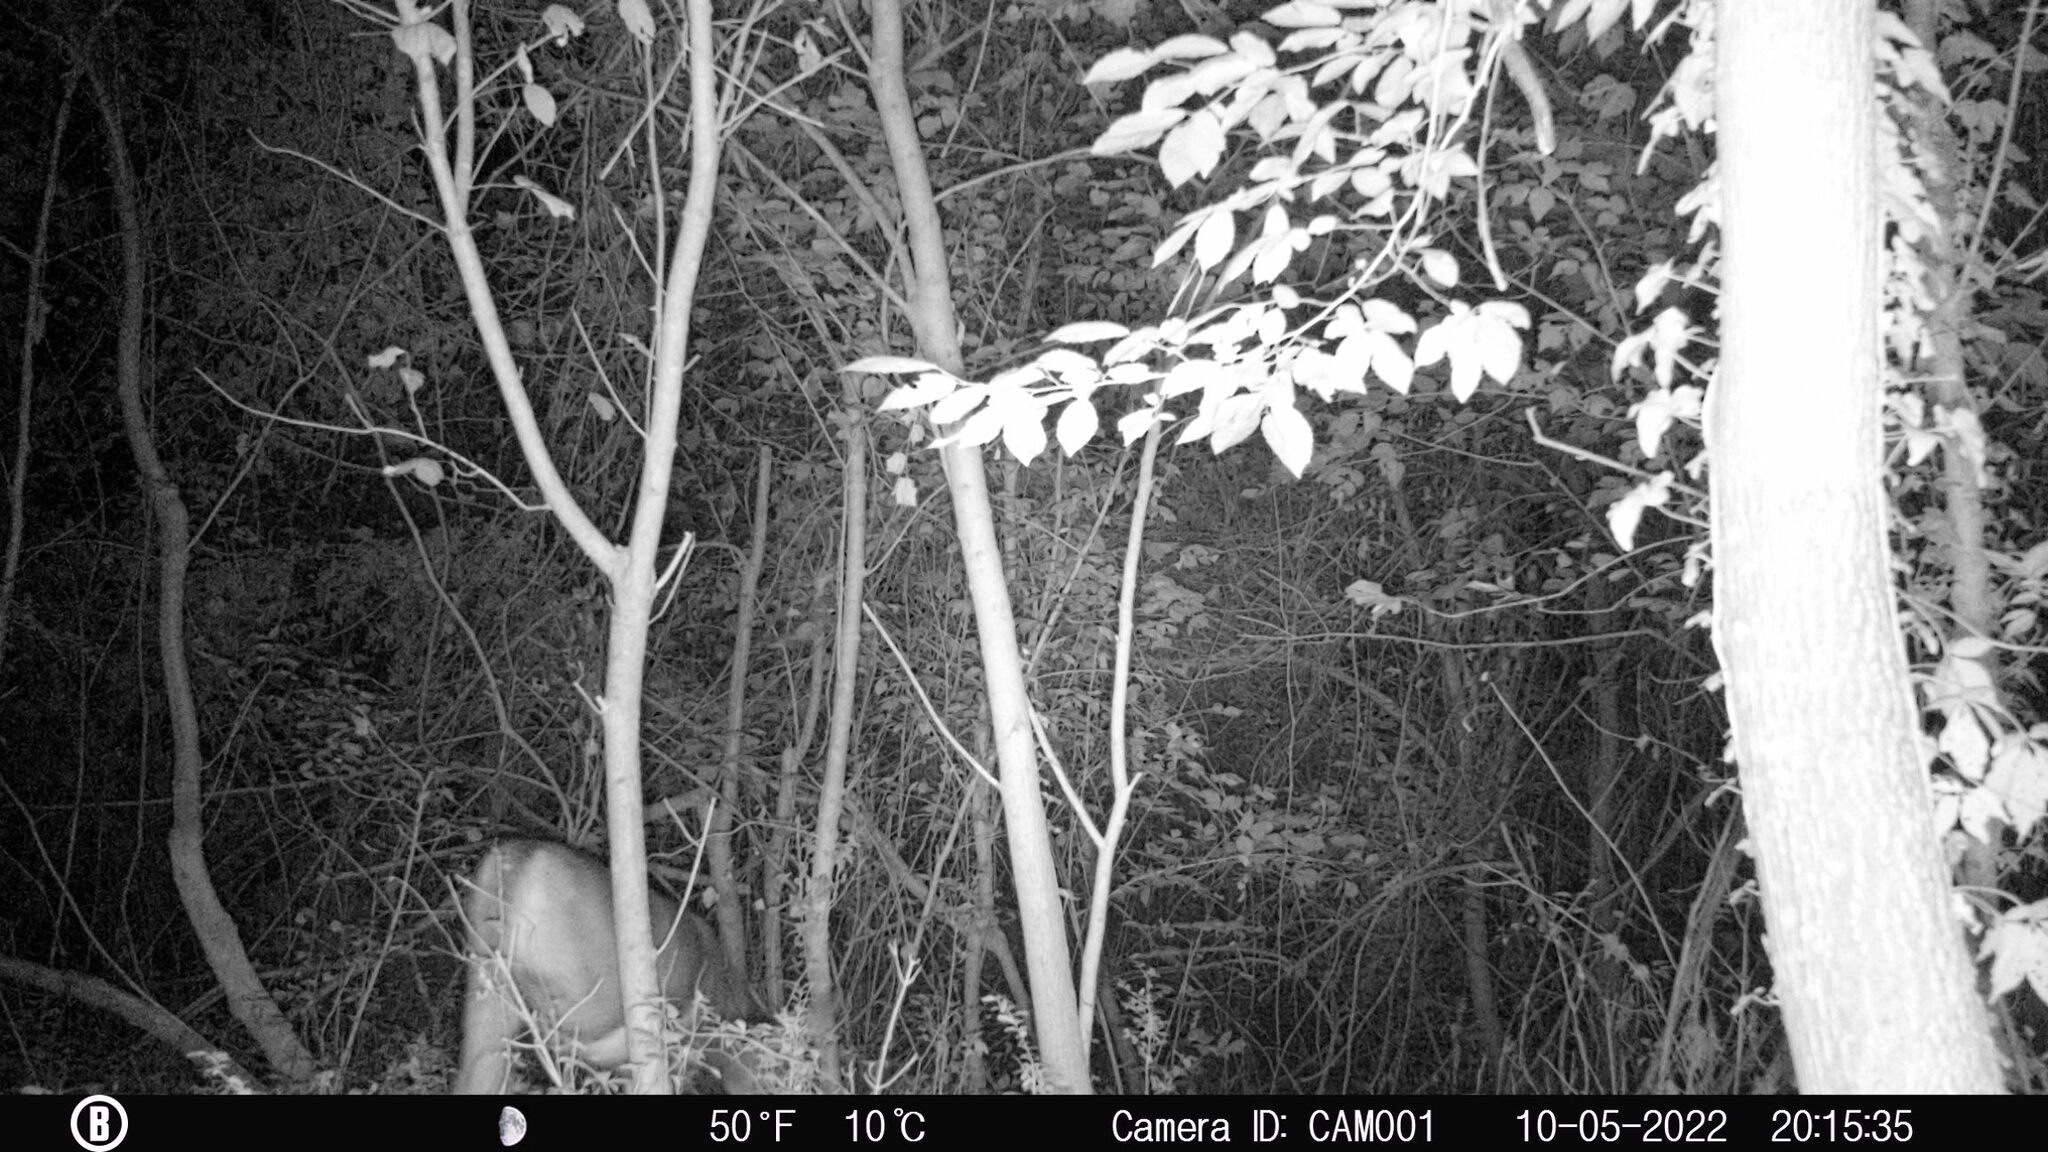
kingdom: Animalia
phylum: Chordata
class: Mammalia
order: Artiodactyla
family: Cervidae
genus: Odocoileus
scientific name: Odocoileus virginianus
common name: White-tailed deer
